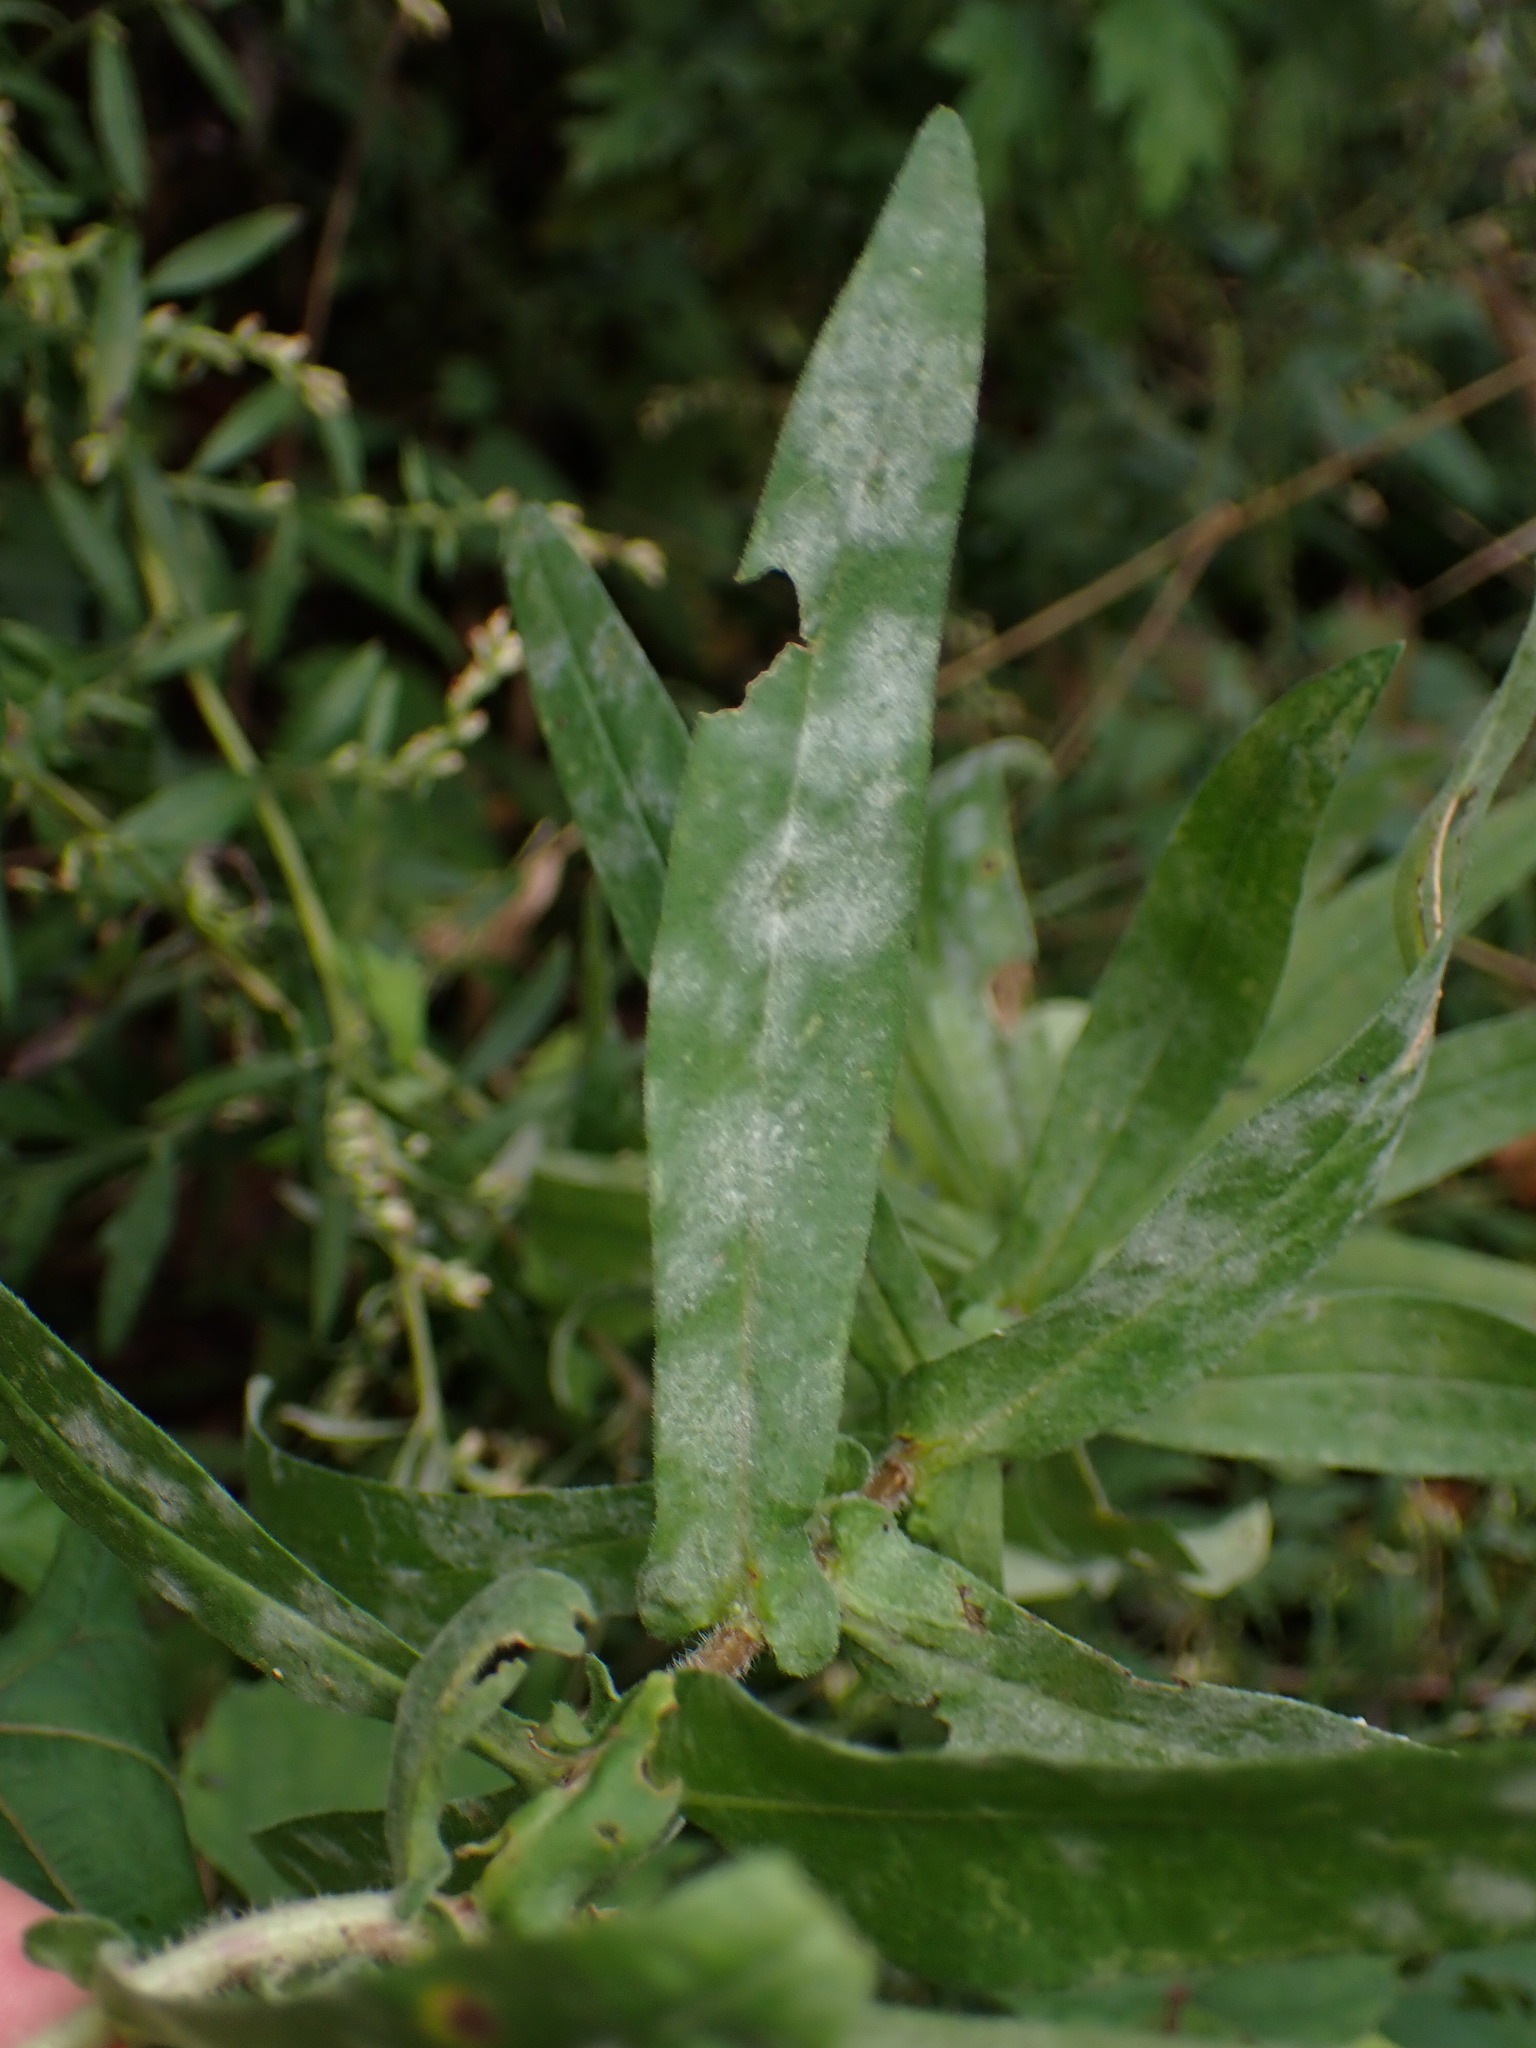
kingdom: Fungi
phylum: Ascomycota
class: Leotiomycetes
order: Helotiales
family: Erysiphaceae
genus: Golovinomyces
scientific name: Golovinomyces asterum
